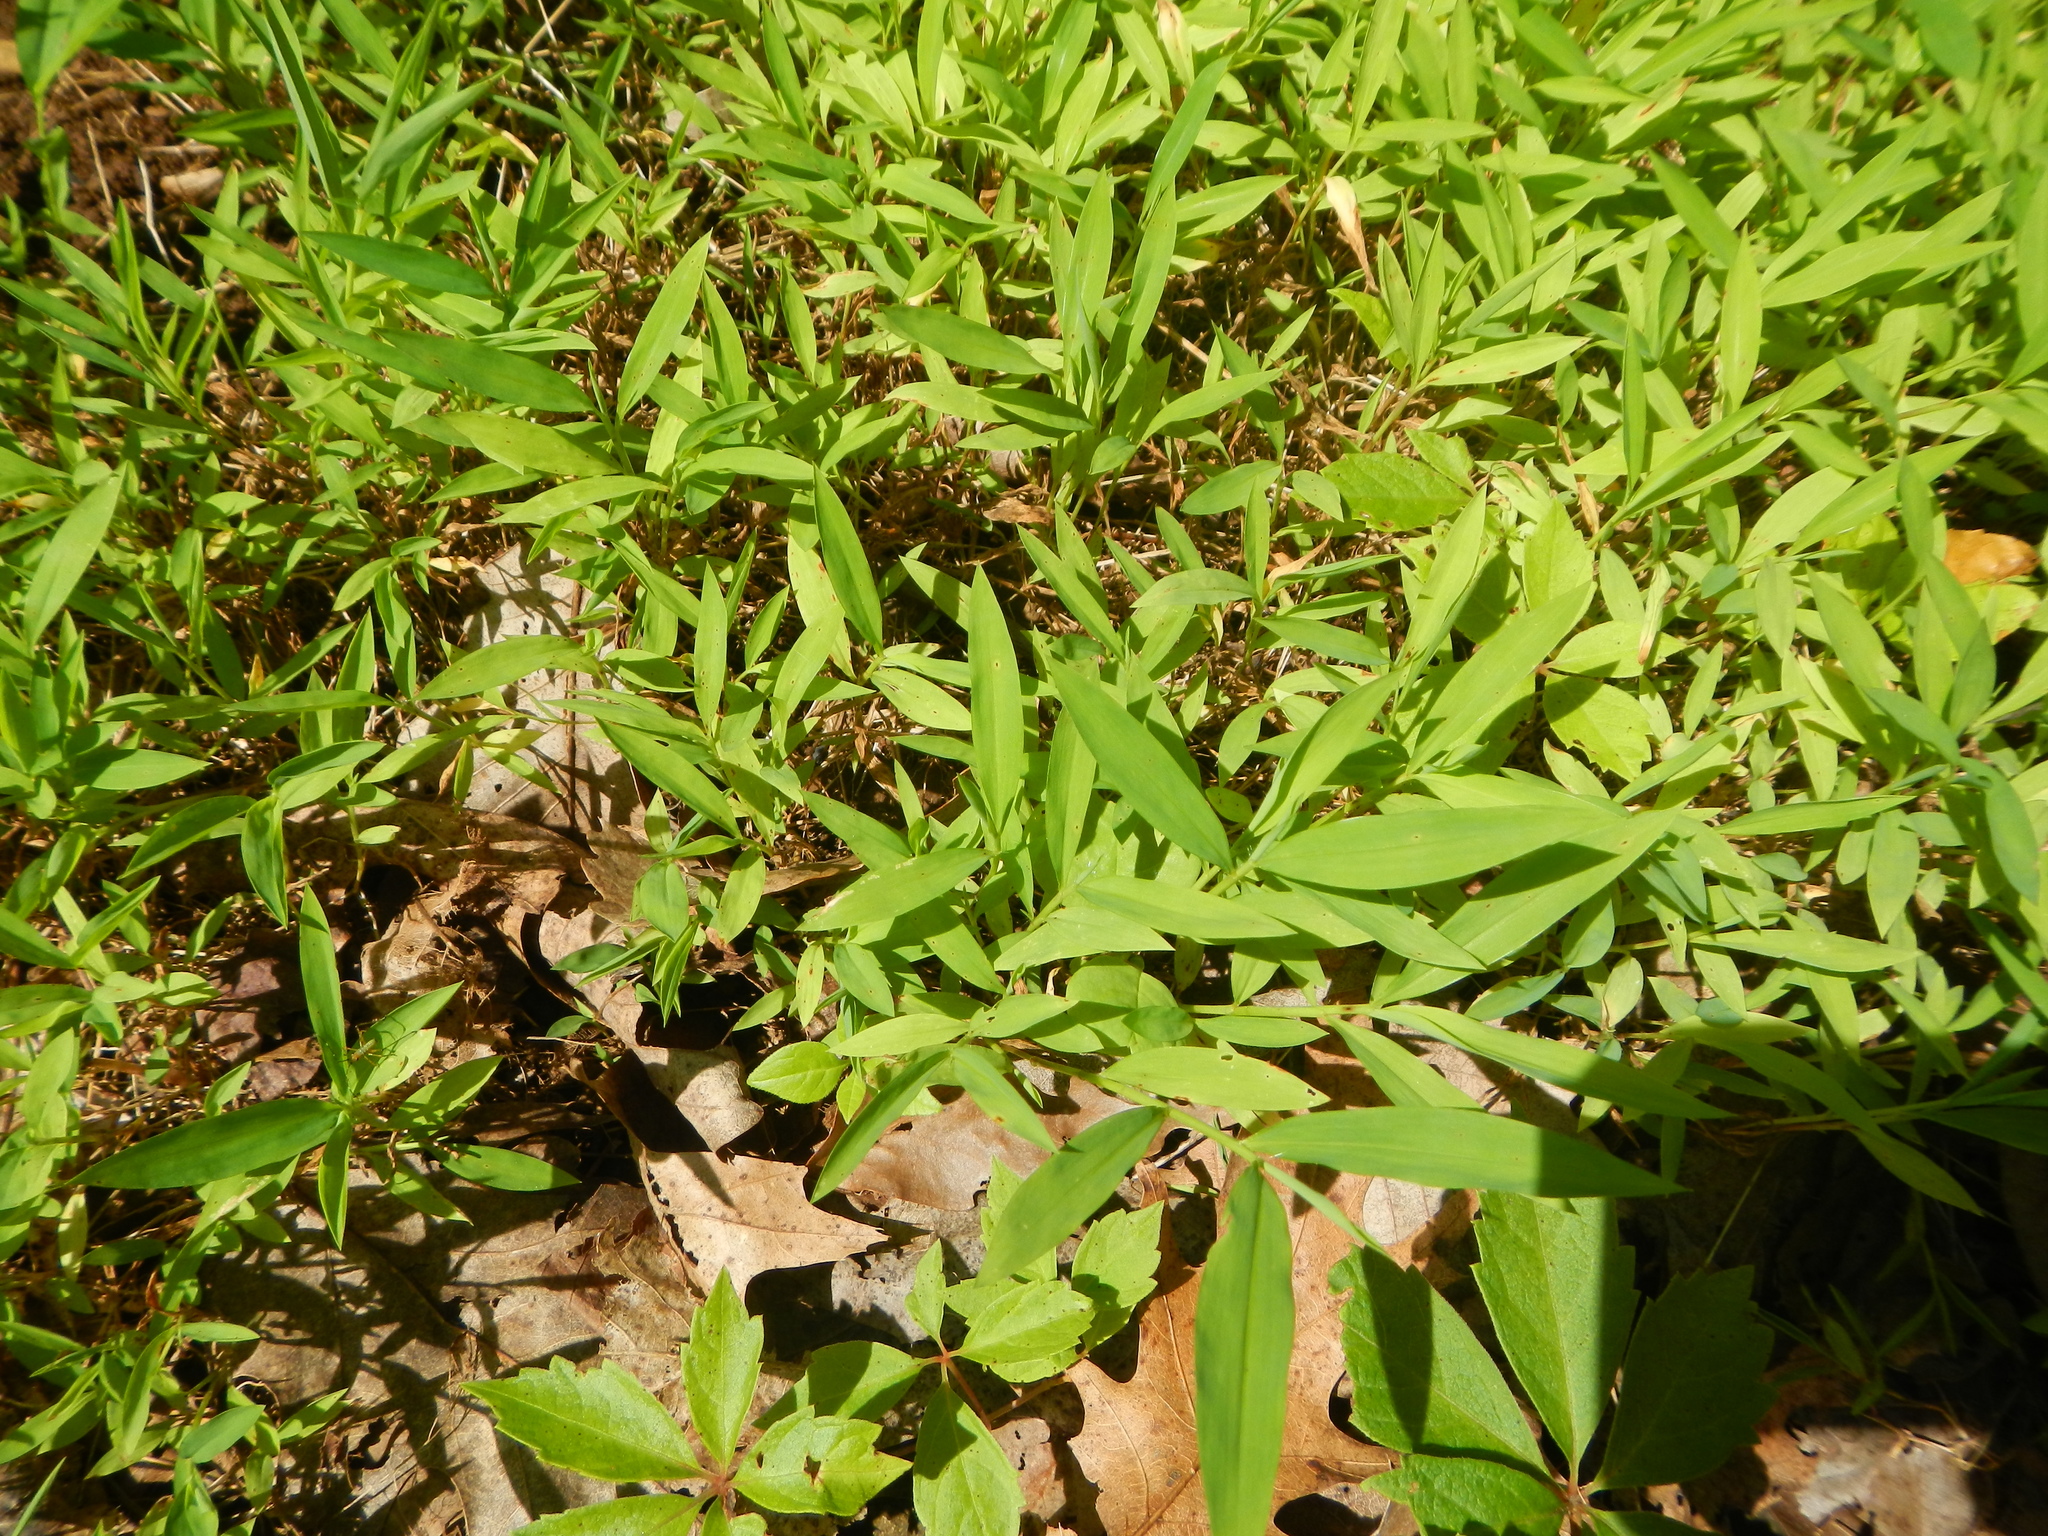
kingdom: Plantae
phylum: Tracheophyta
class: Liliopsida
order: Poales
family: Poaceae
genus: Microstegium
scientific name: Microstegium vimineum
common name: Japanese stiltgrass
